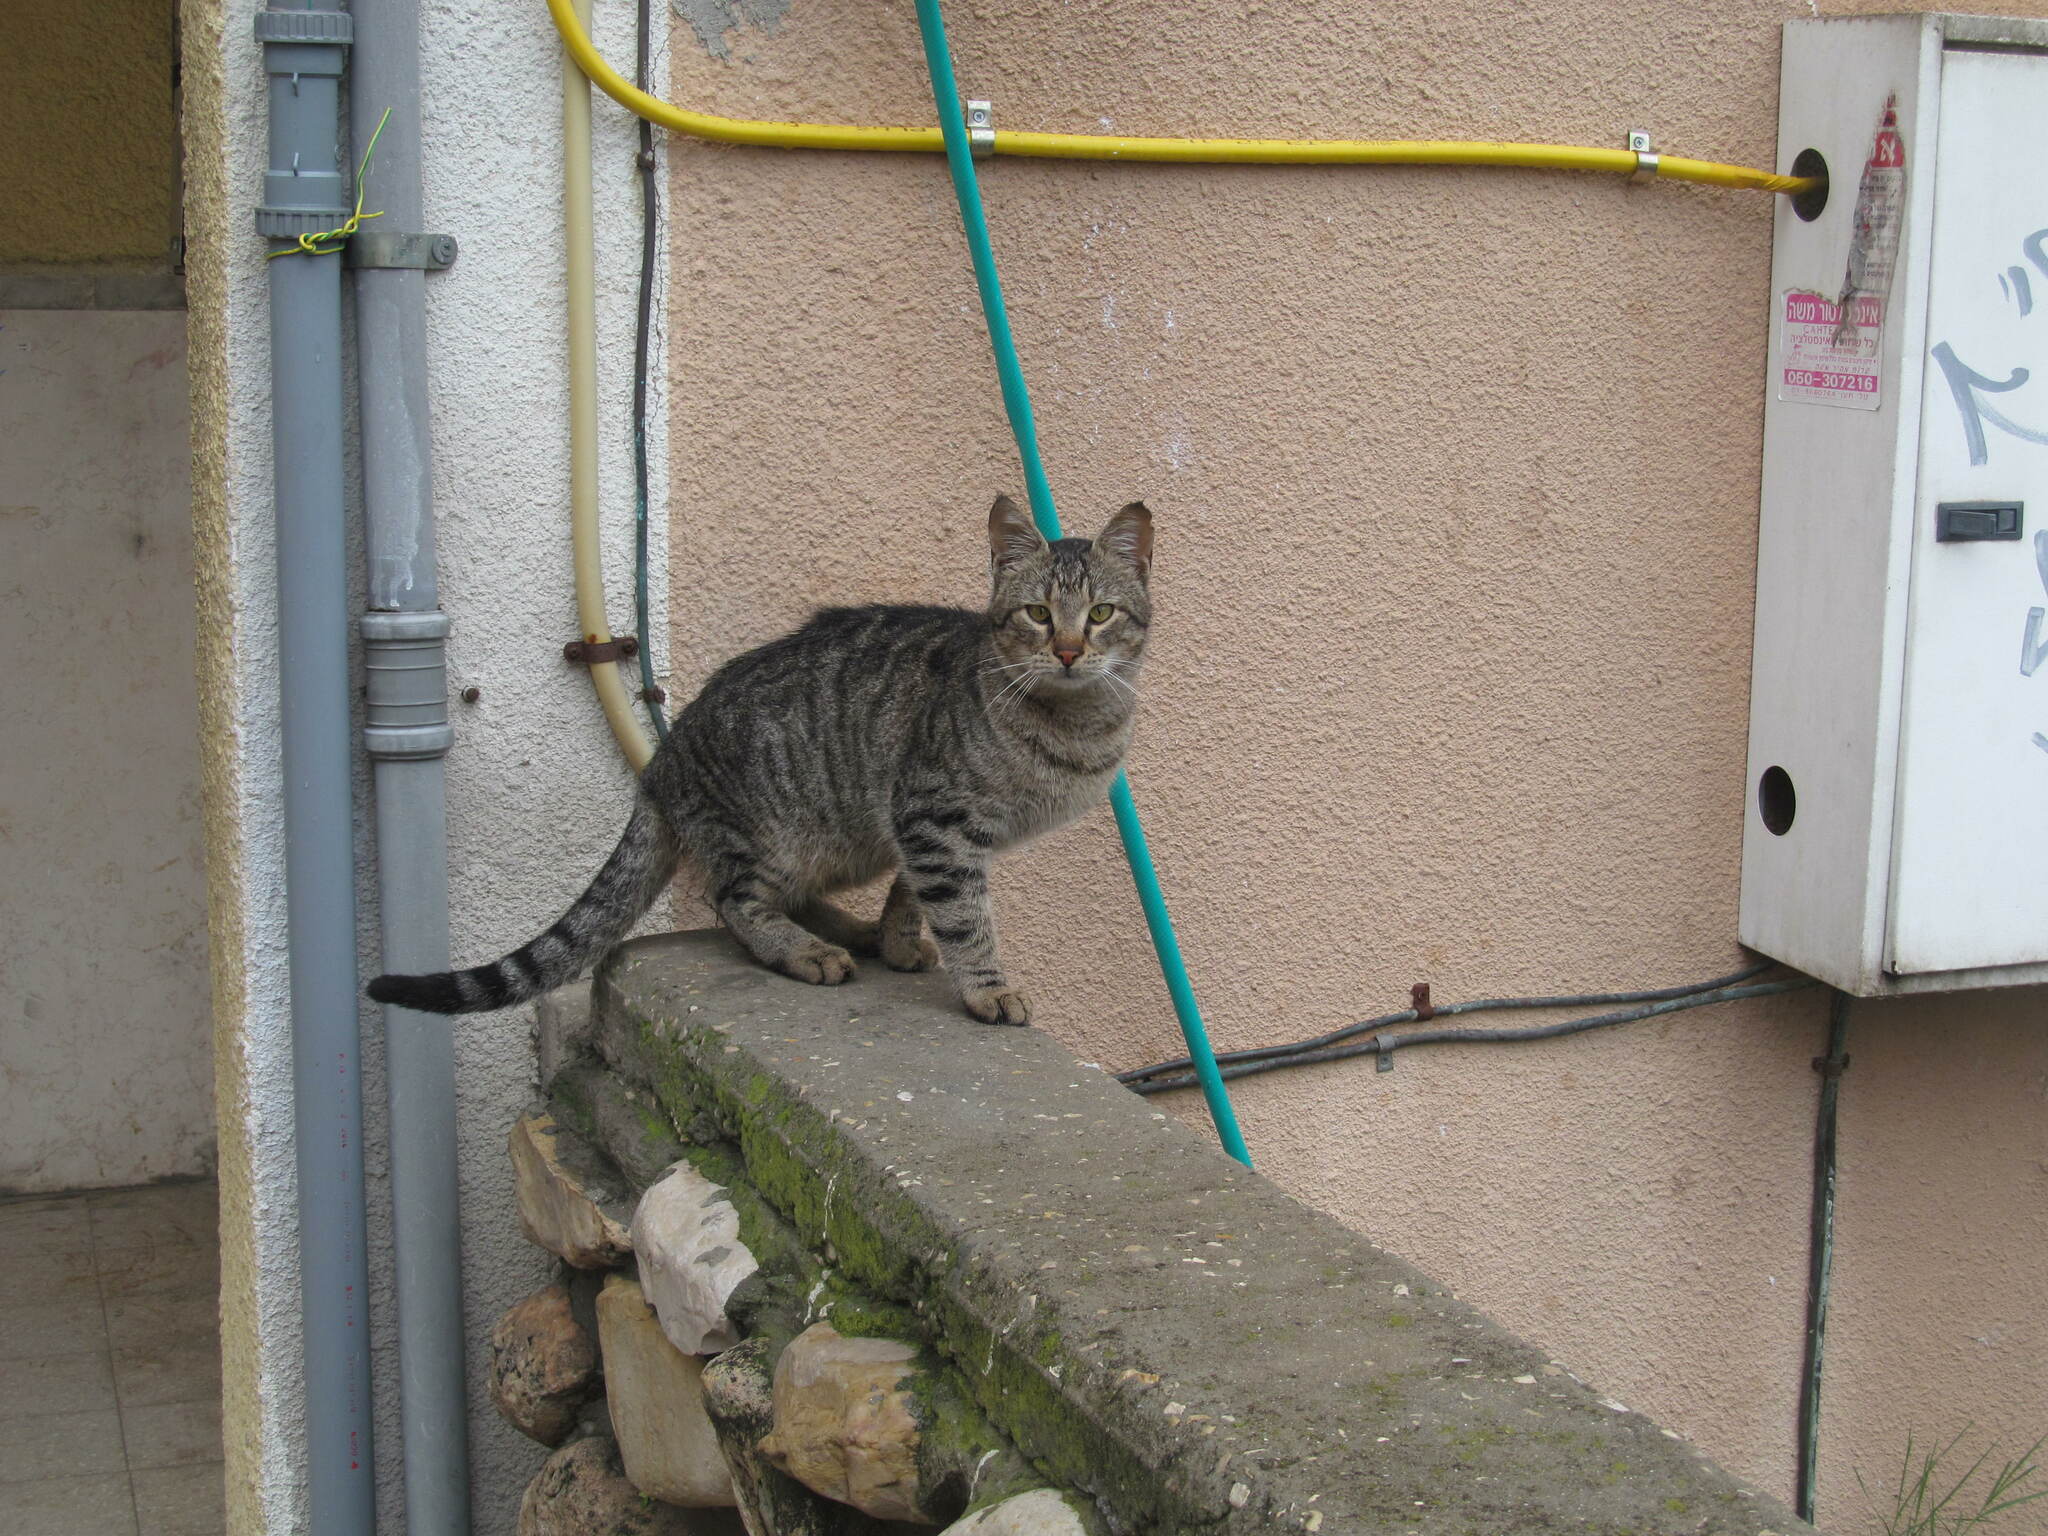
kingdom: Animalia
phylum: Chordata
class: Mammalia
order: Carnivora
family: Felidae
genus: Felis
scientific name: Felis catus
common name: Domestic cat
